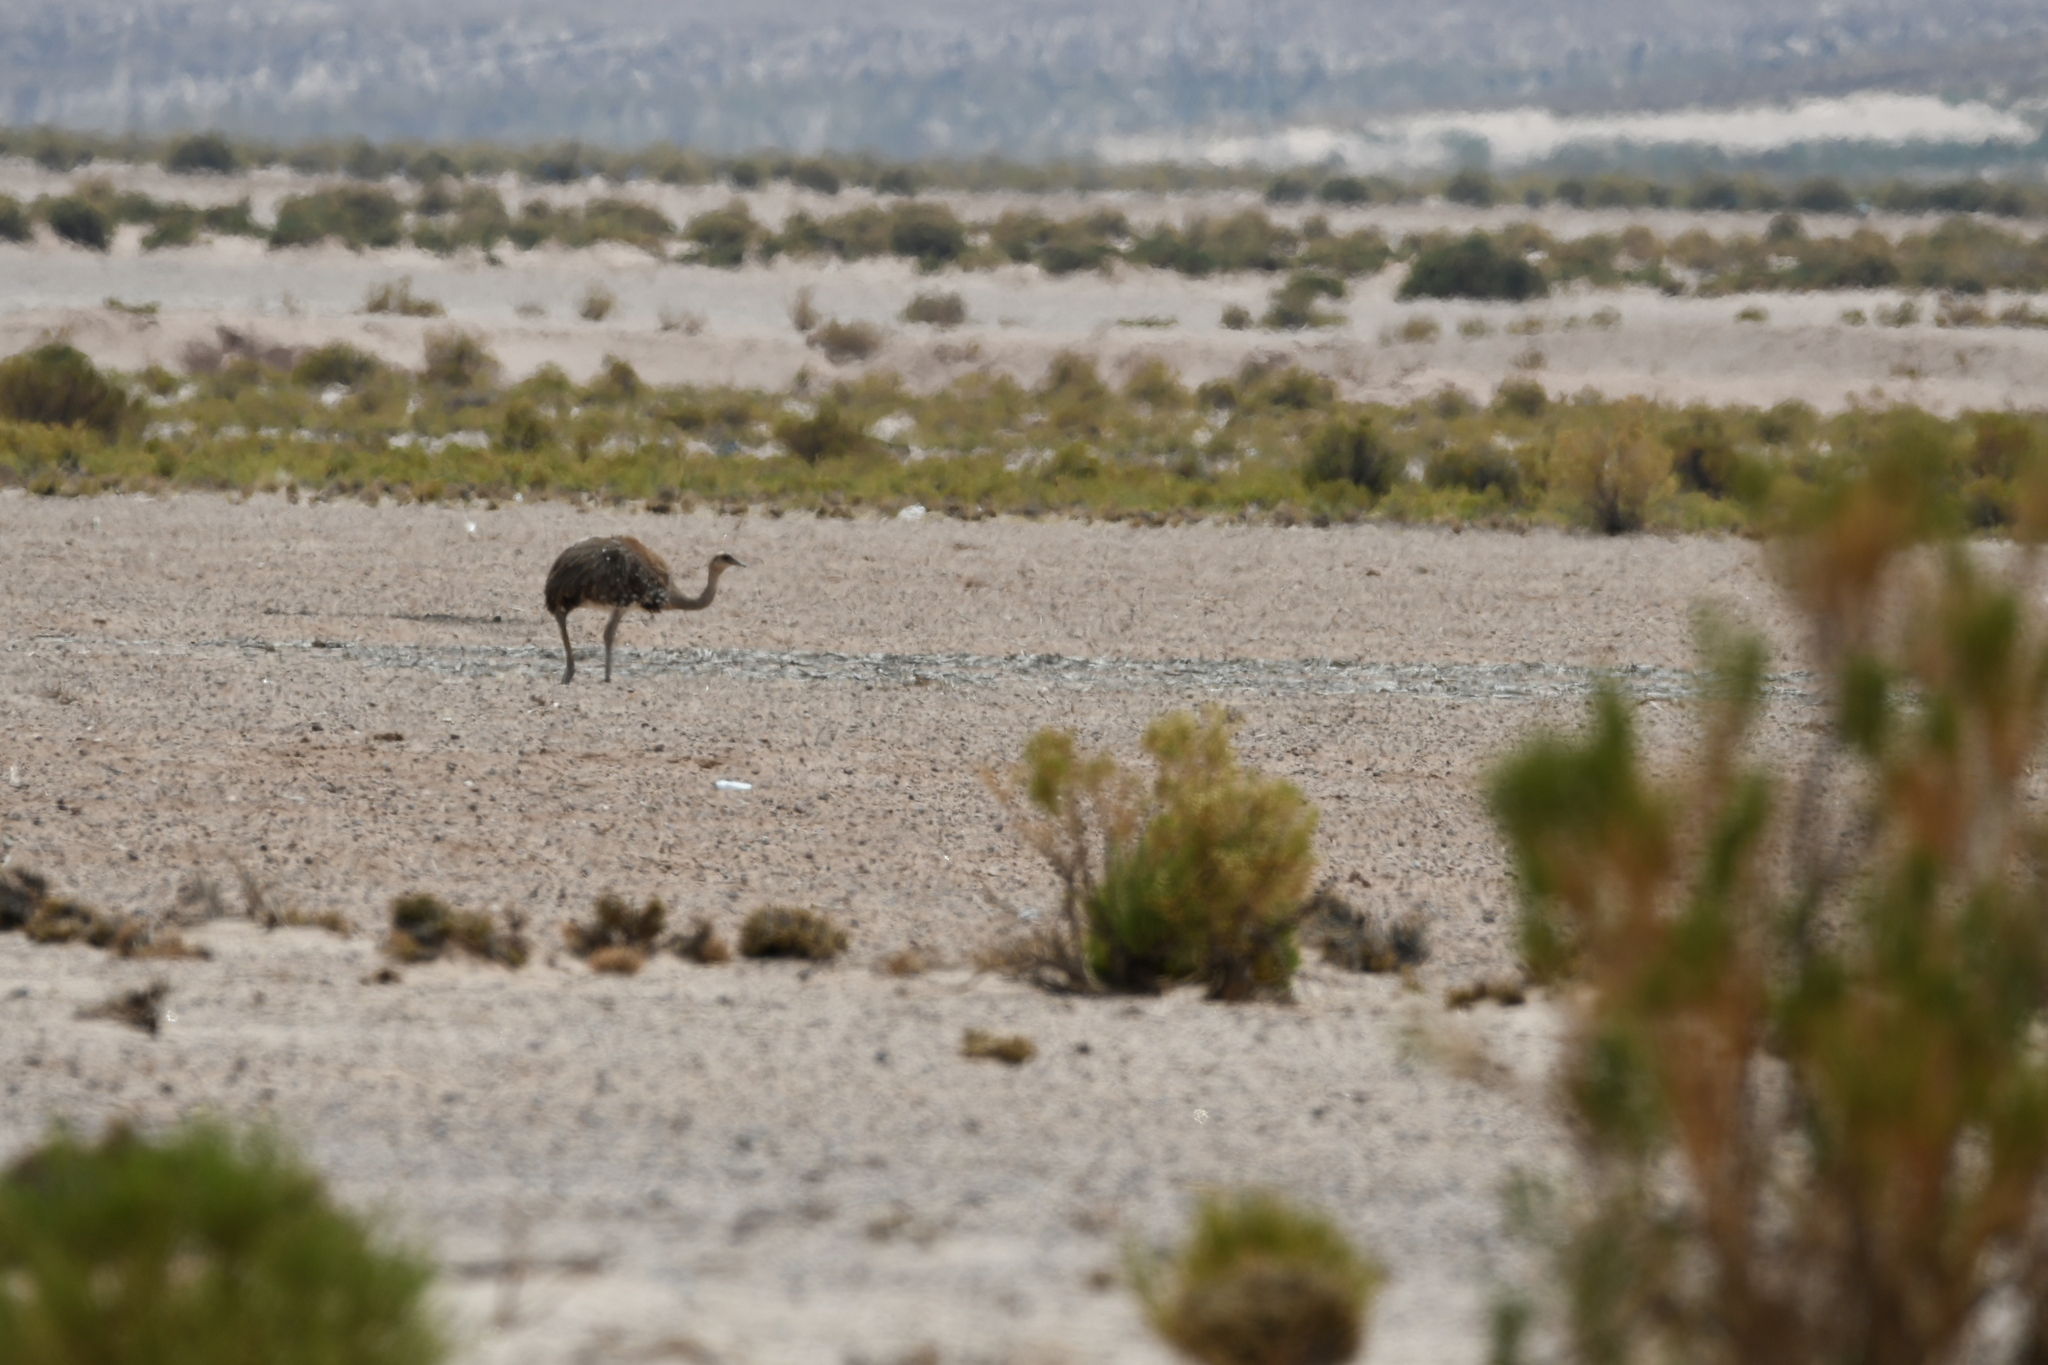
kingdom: Animalia
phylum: Chordata
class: Aves
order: Rheiformes
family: Rheidae
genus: Rhea
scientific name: Rhea pennata
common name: Lesser rhea
